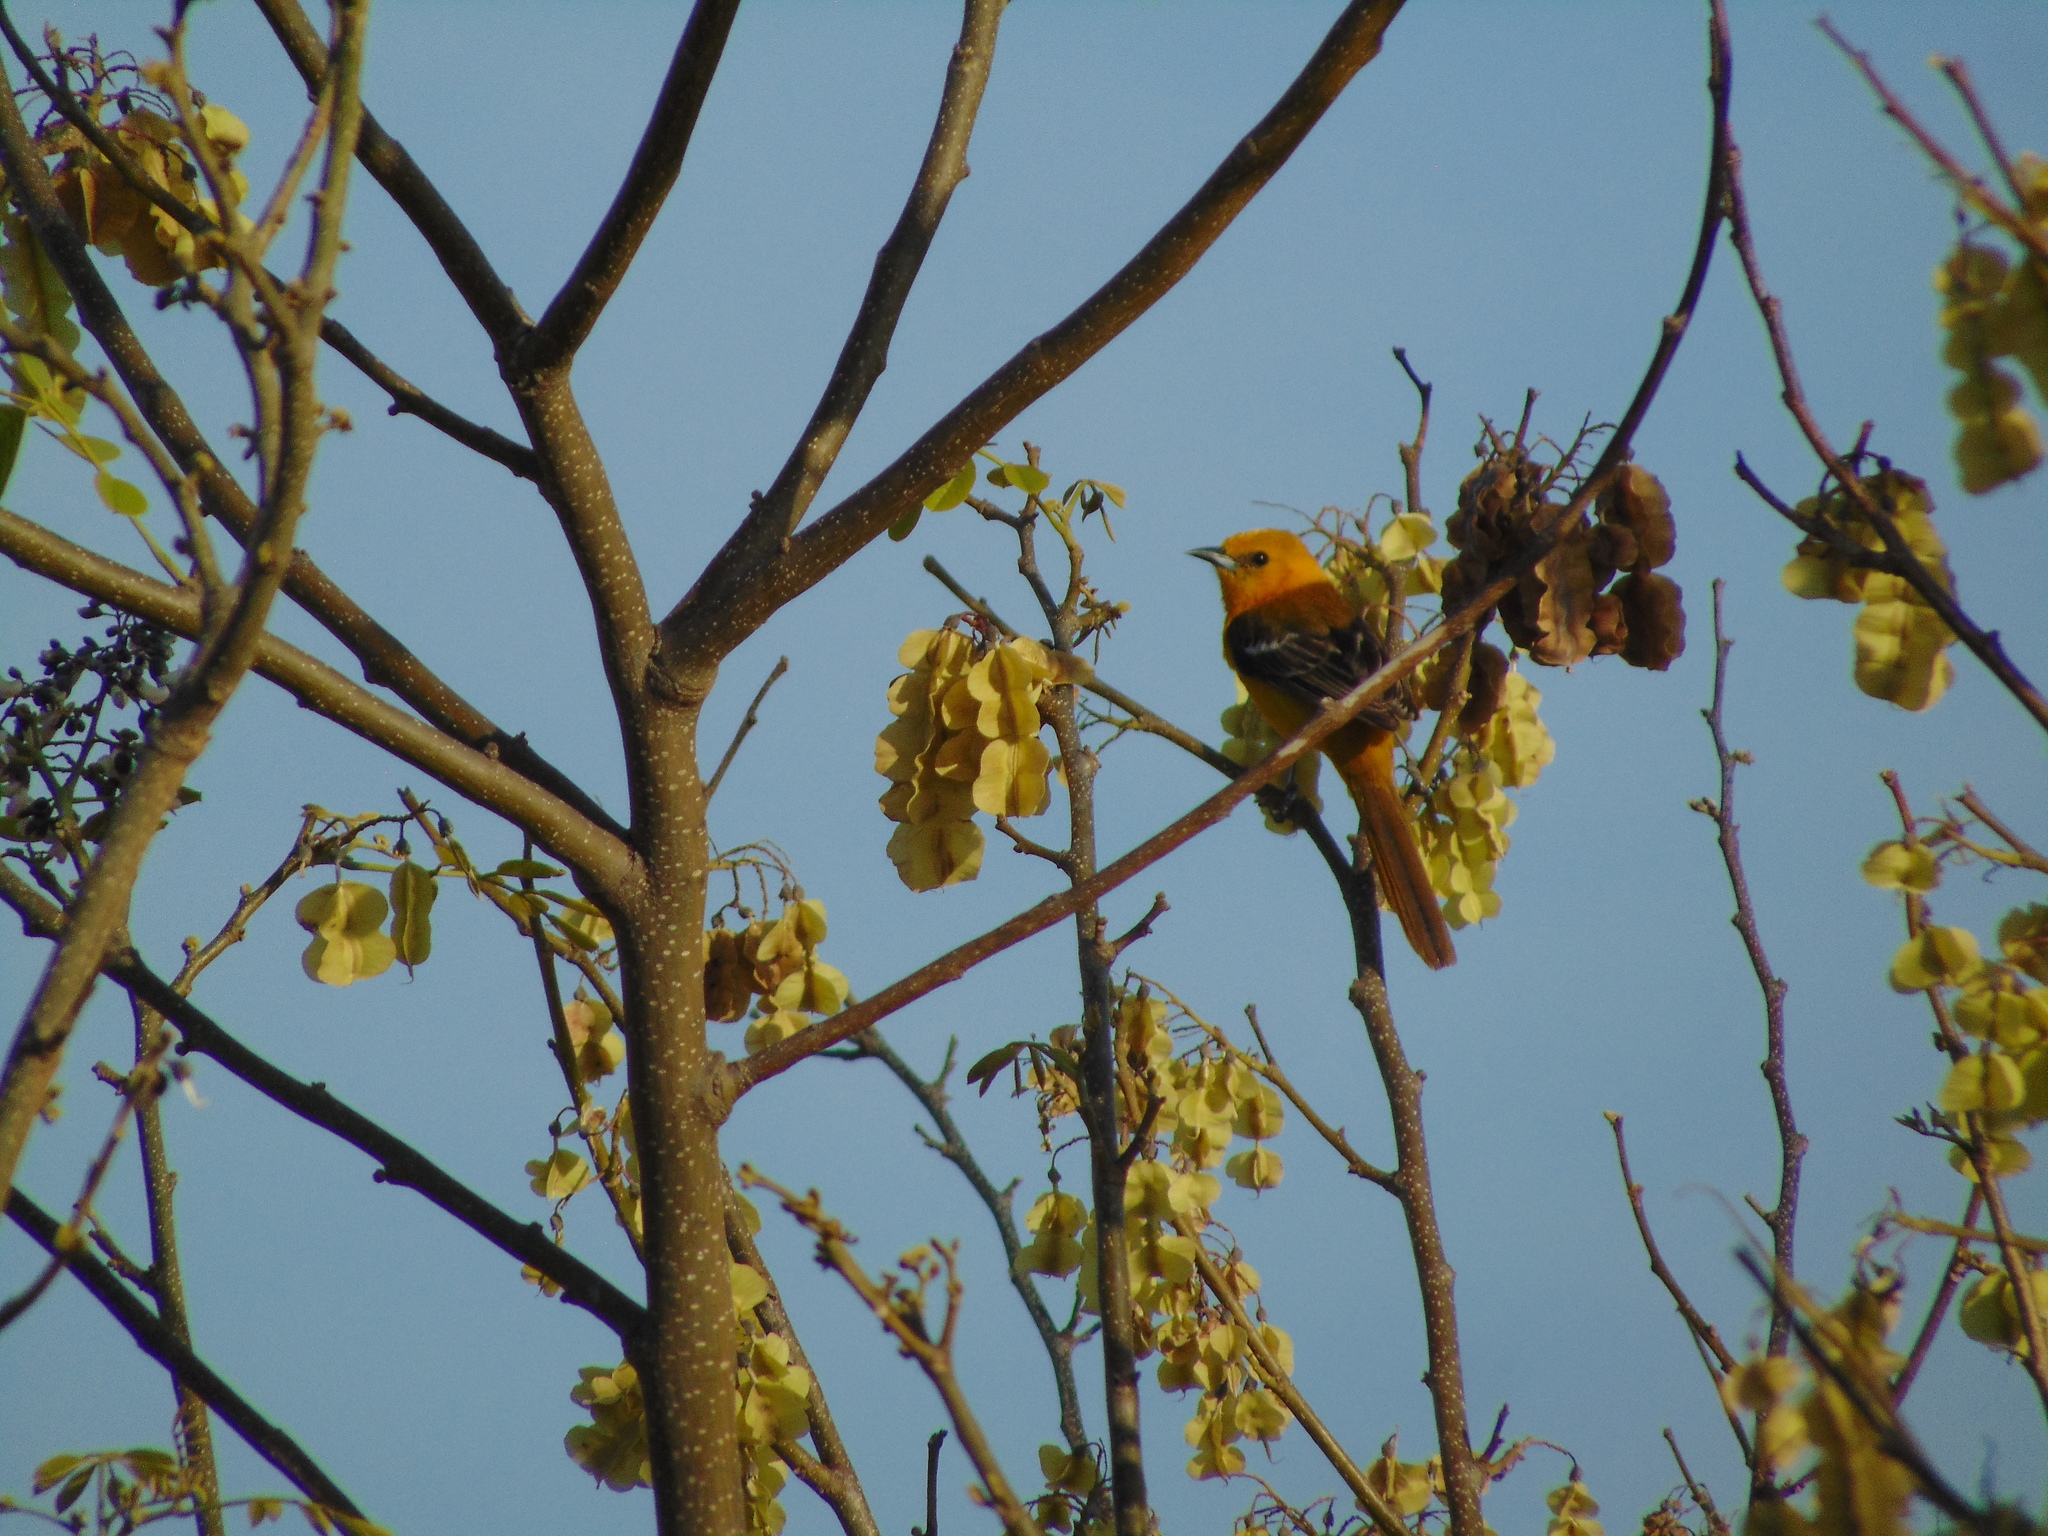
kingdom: Animalia
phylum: Chordata
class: Aves
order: Passeriformes
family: Icteridae
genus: Icterus
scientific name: Icterus cucullatus
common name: Hooded oriole
